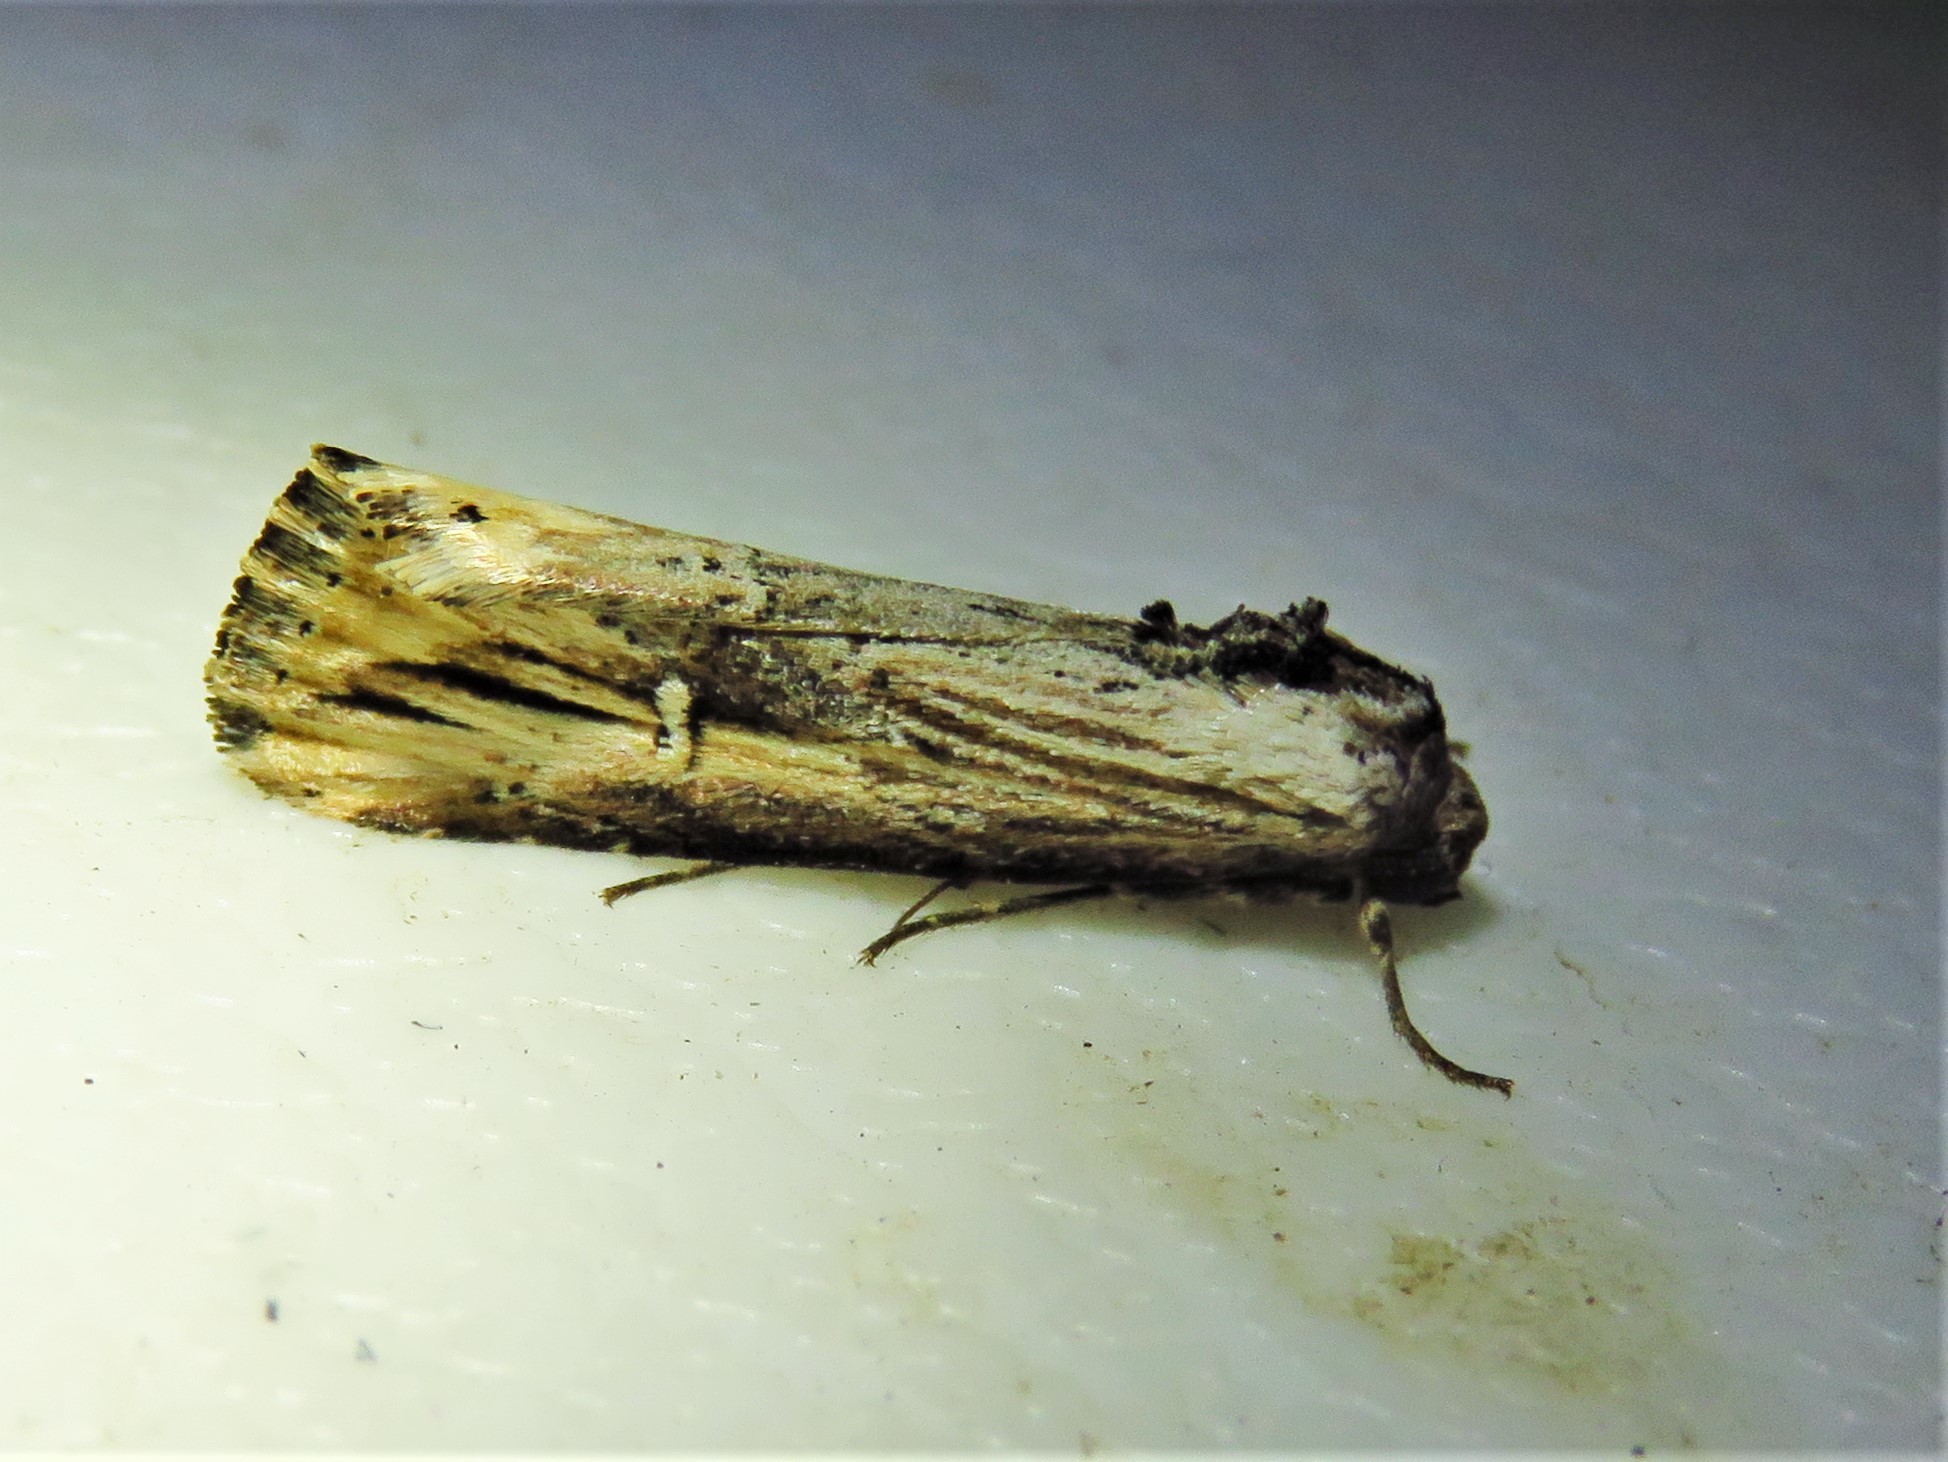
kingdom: Animalia
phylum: Arthropoda
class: Insecta
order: Lepidoptera
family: Noctuidae
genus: Crambodes
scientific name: Crambodes talidiformis
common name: Verbena moth
